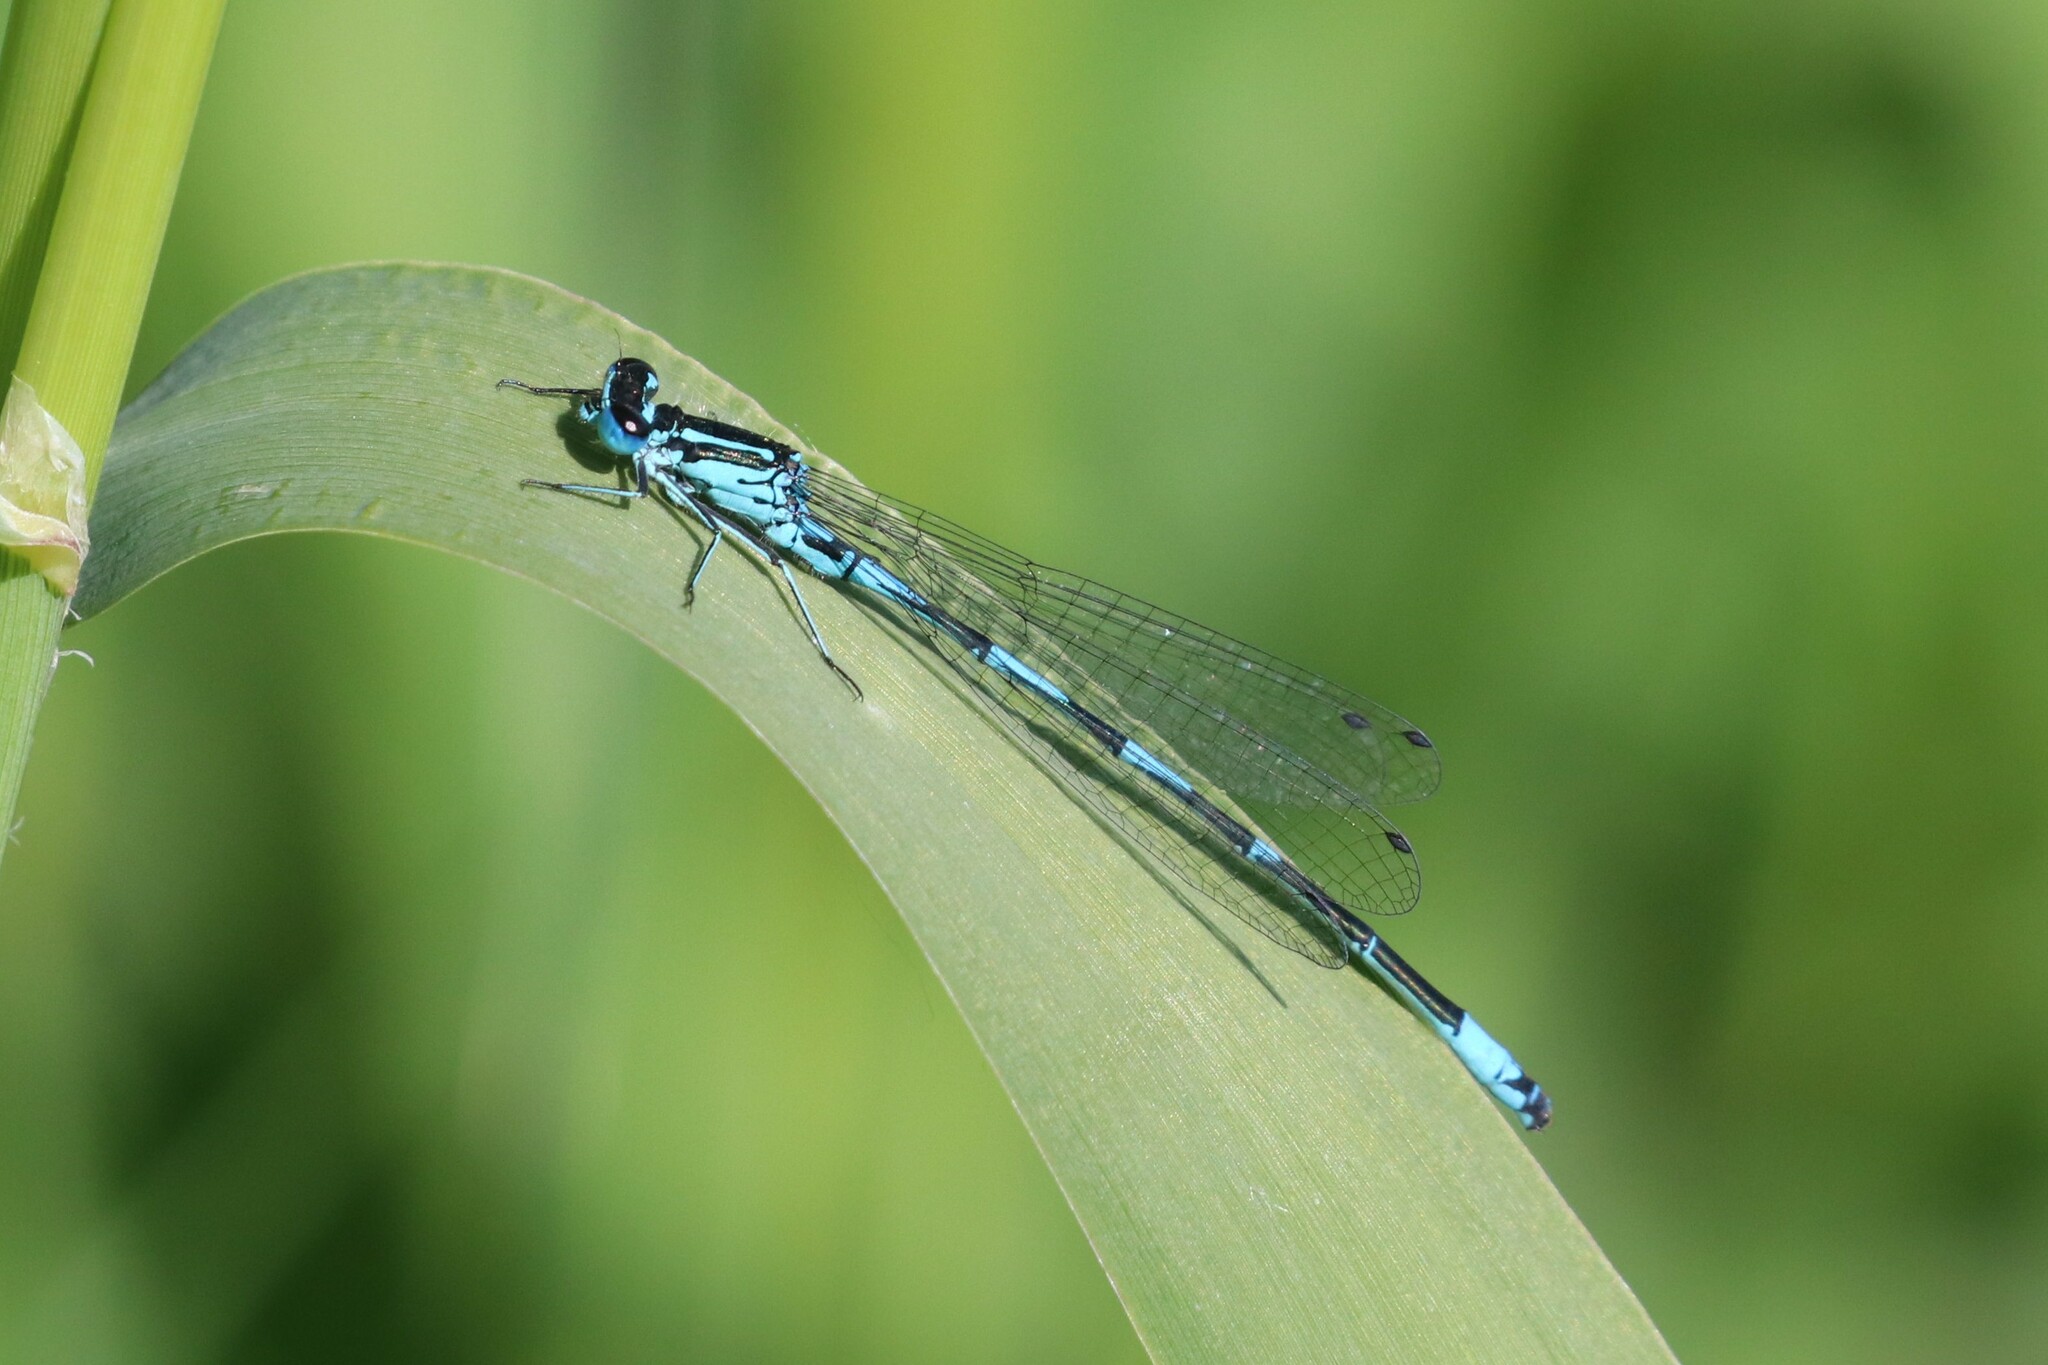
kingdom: Animalia
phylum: Arthropoda
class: Insecta
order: Odonata
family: Coenagrionidae
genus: Coenagrion
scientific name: Coenagrion pulchellum
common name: Variable bluet
